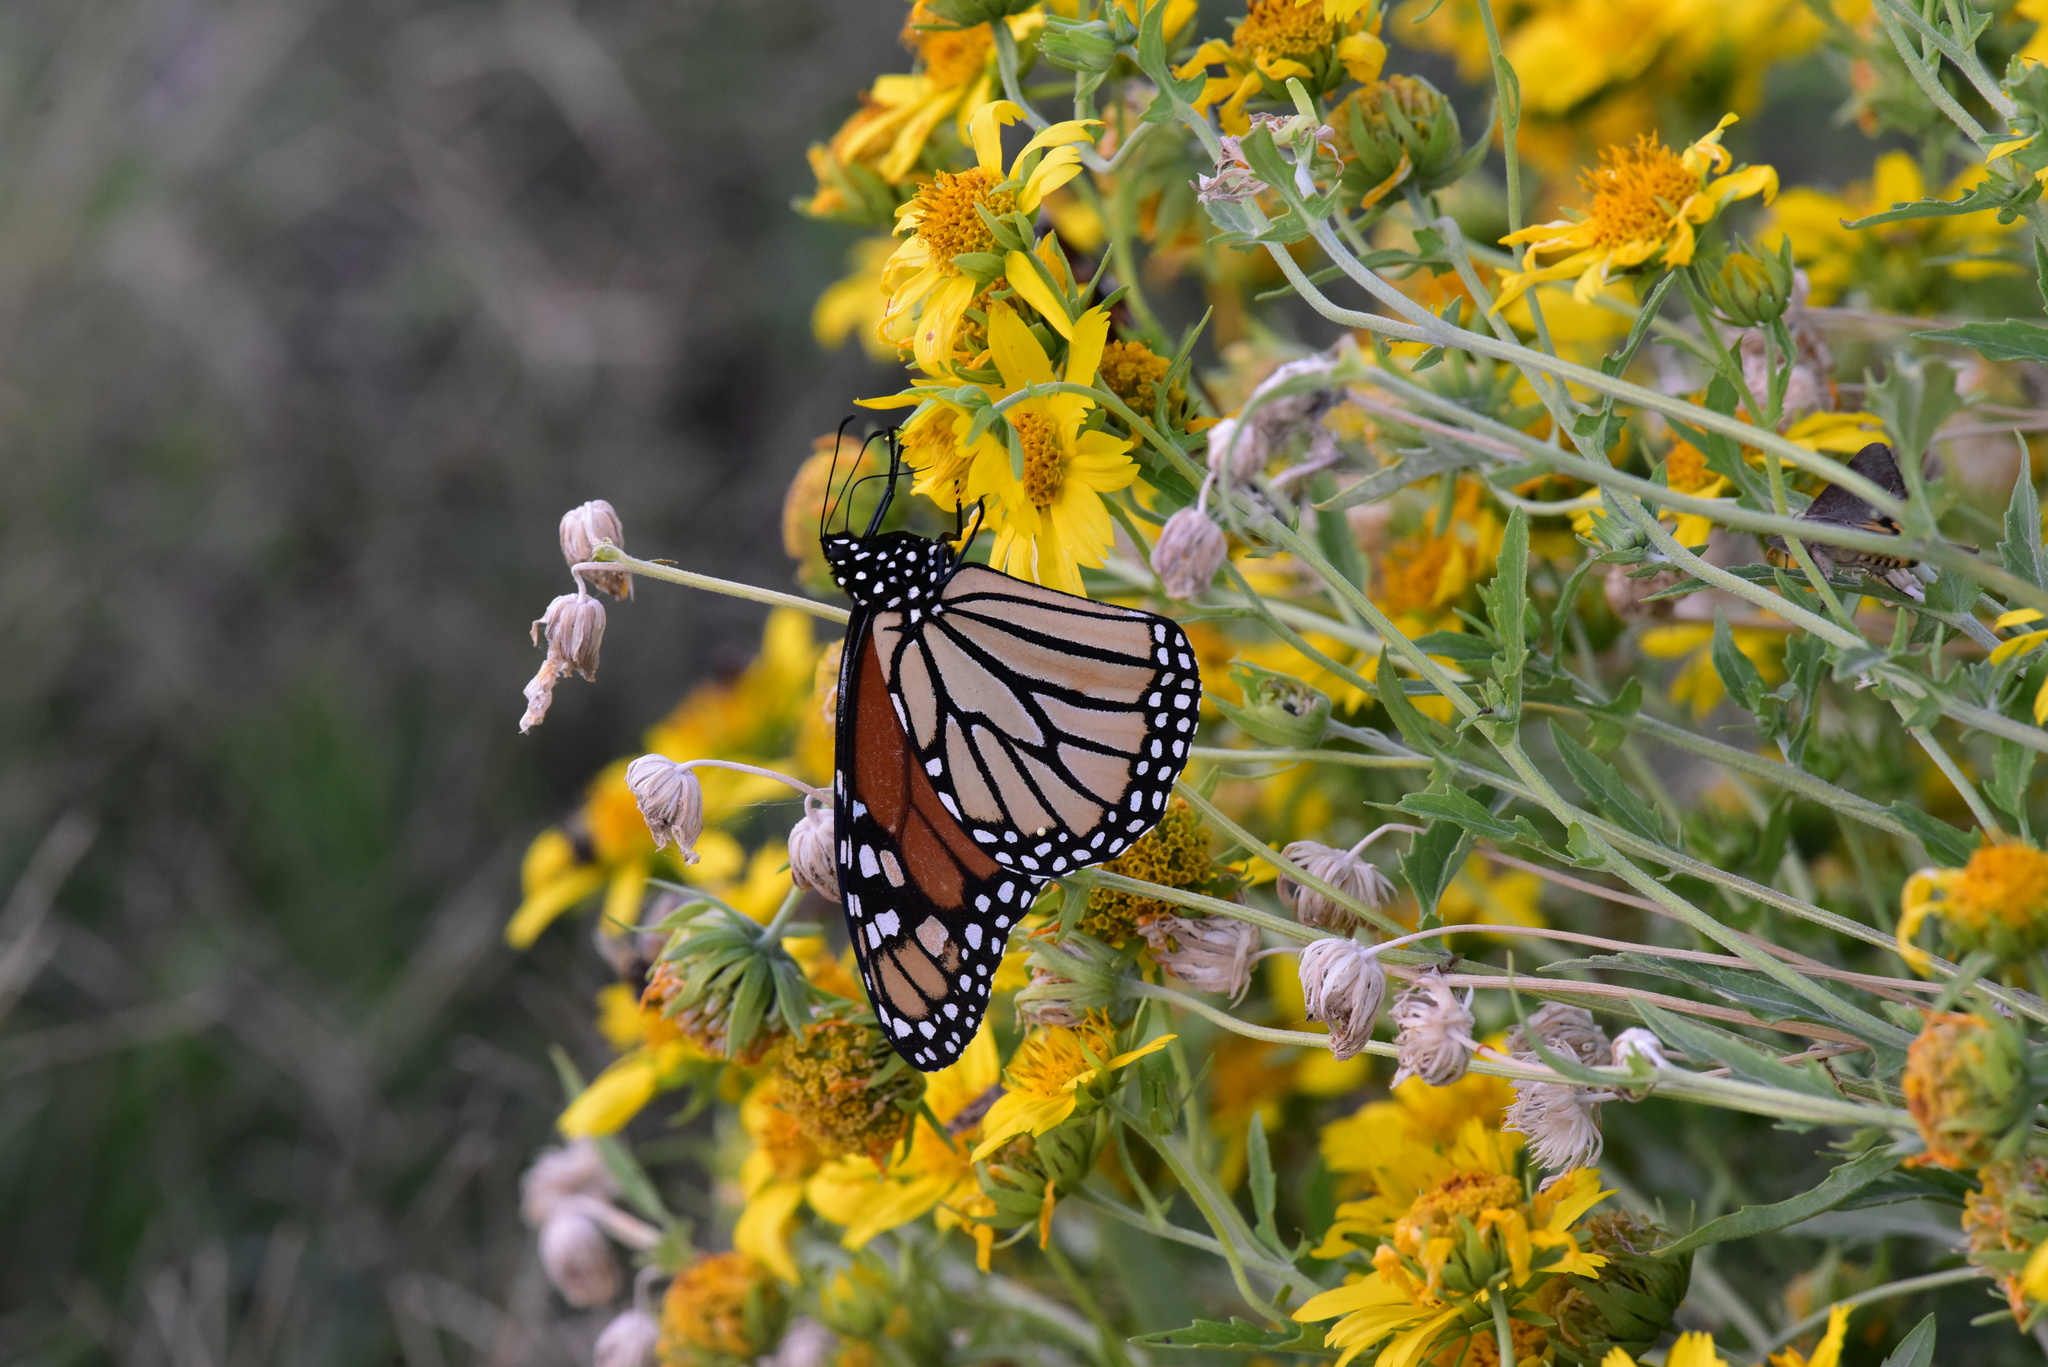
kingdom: Animalia
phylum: Arthropoda
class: Insecta
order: Lepidoptera
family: Nymphalidae
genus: Danaus
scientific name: Danaus plexippus
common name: Monarch
